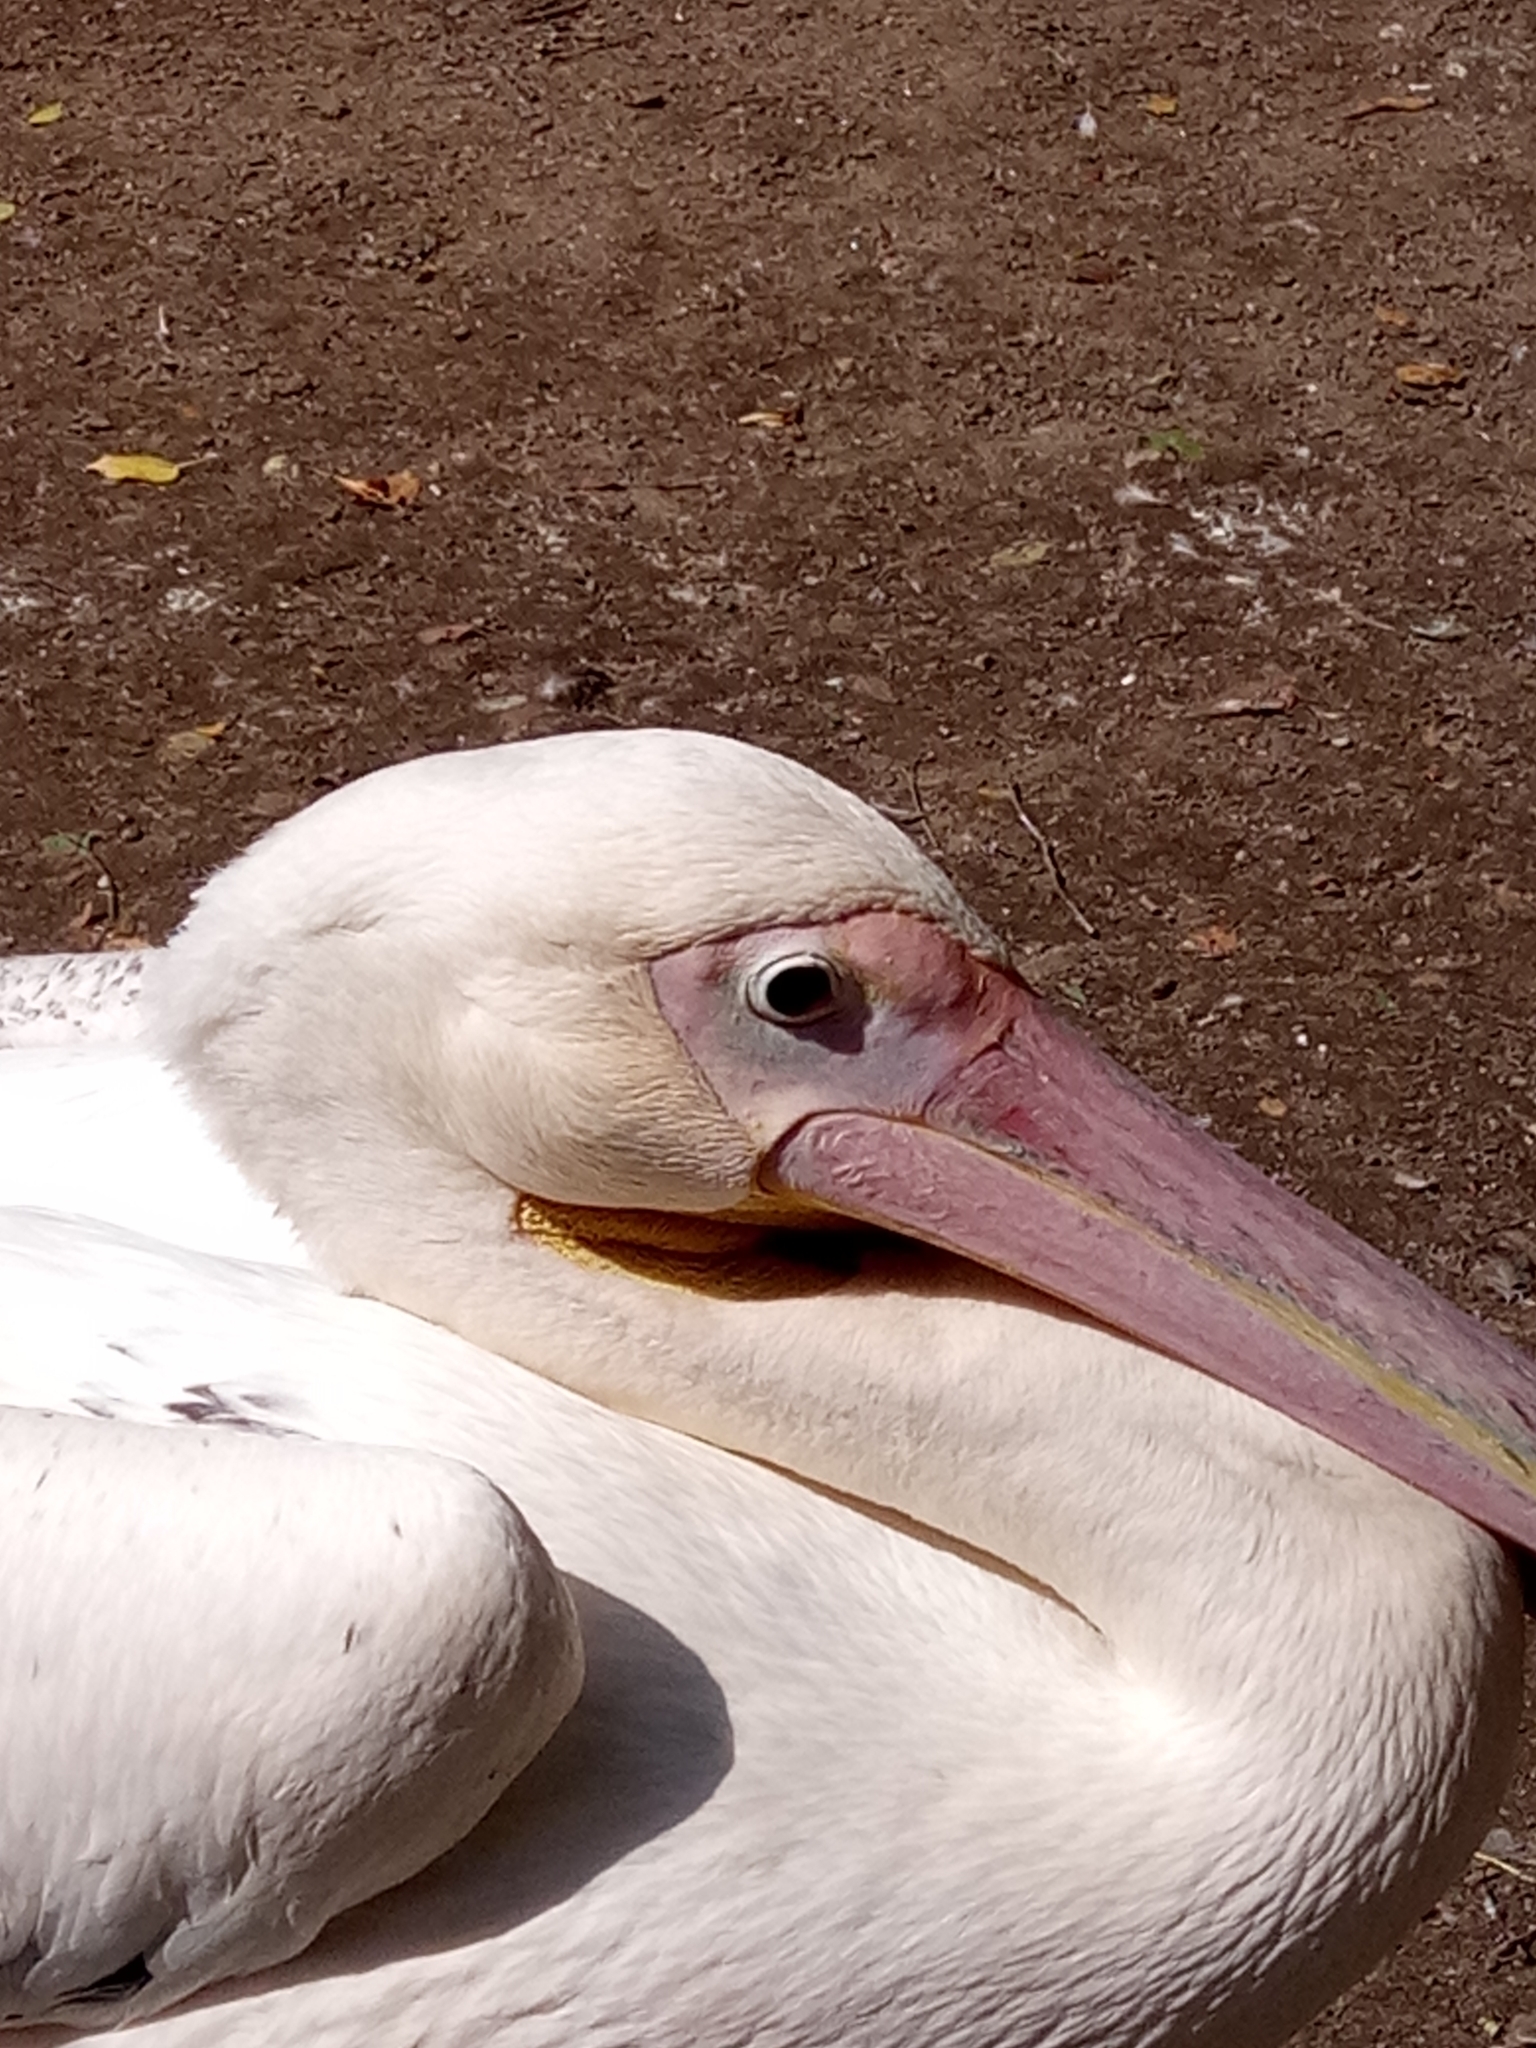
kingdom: Animalia
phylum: Chordata
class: Aves
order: Pelecaniformes
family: Pelecanidae
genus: Pelecanus
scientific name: Pelecanus onocrotalus
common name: Great white pelican
